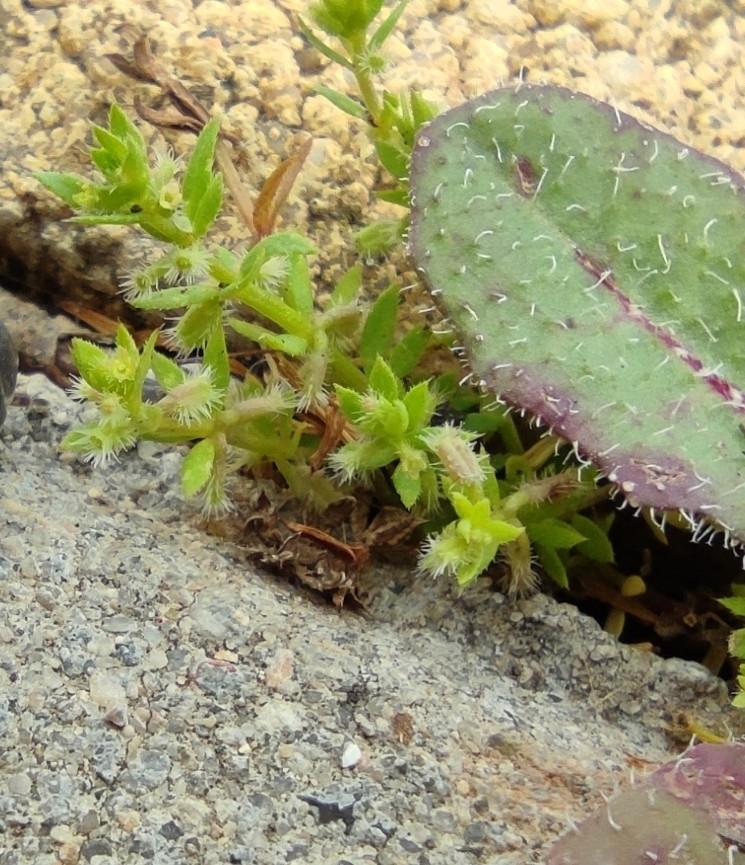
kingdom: Plantae
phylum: Tracheophyta
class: Magnoliopsida
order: Gentianales
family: Rubiaceae
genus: Galium
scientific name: Galium murale
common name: Yellow wall bedstraw
